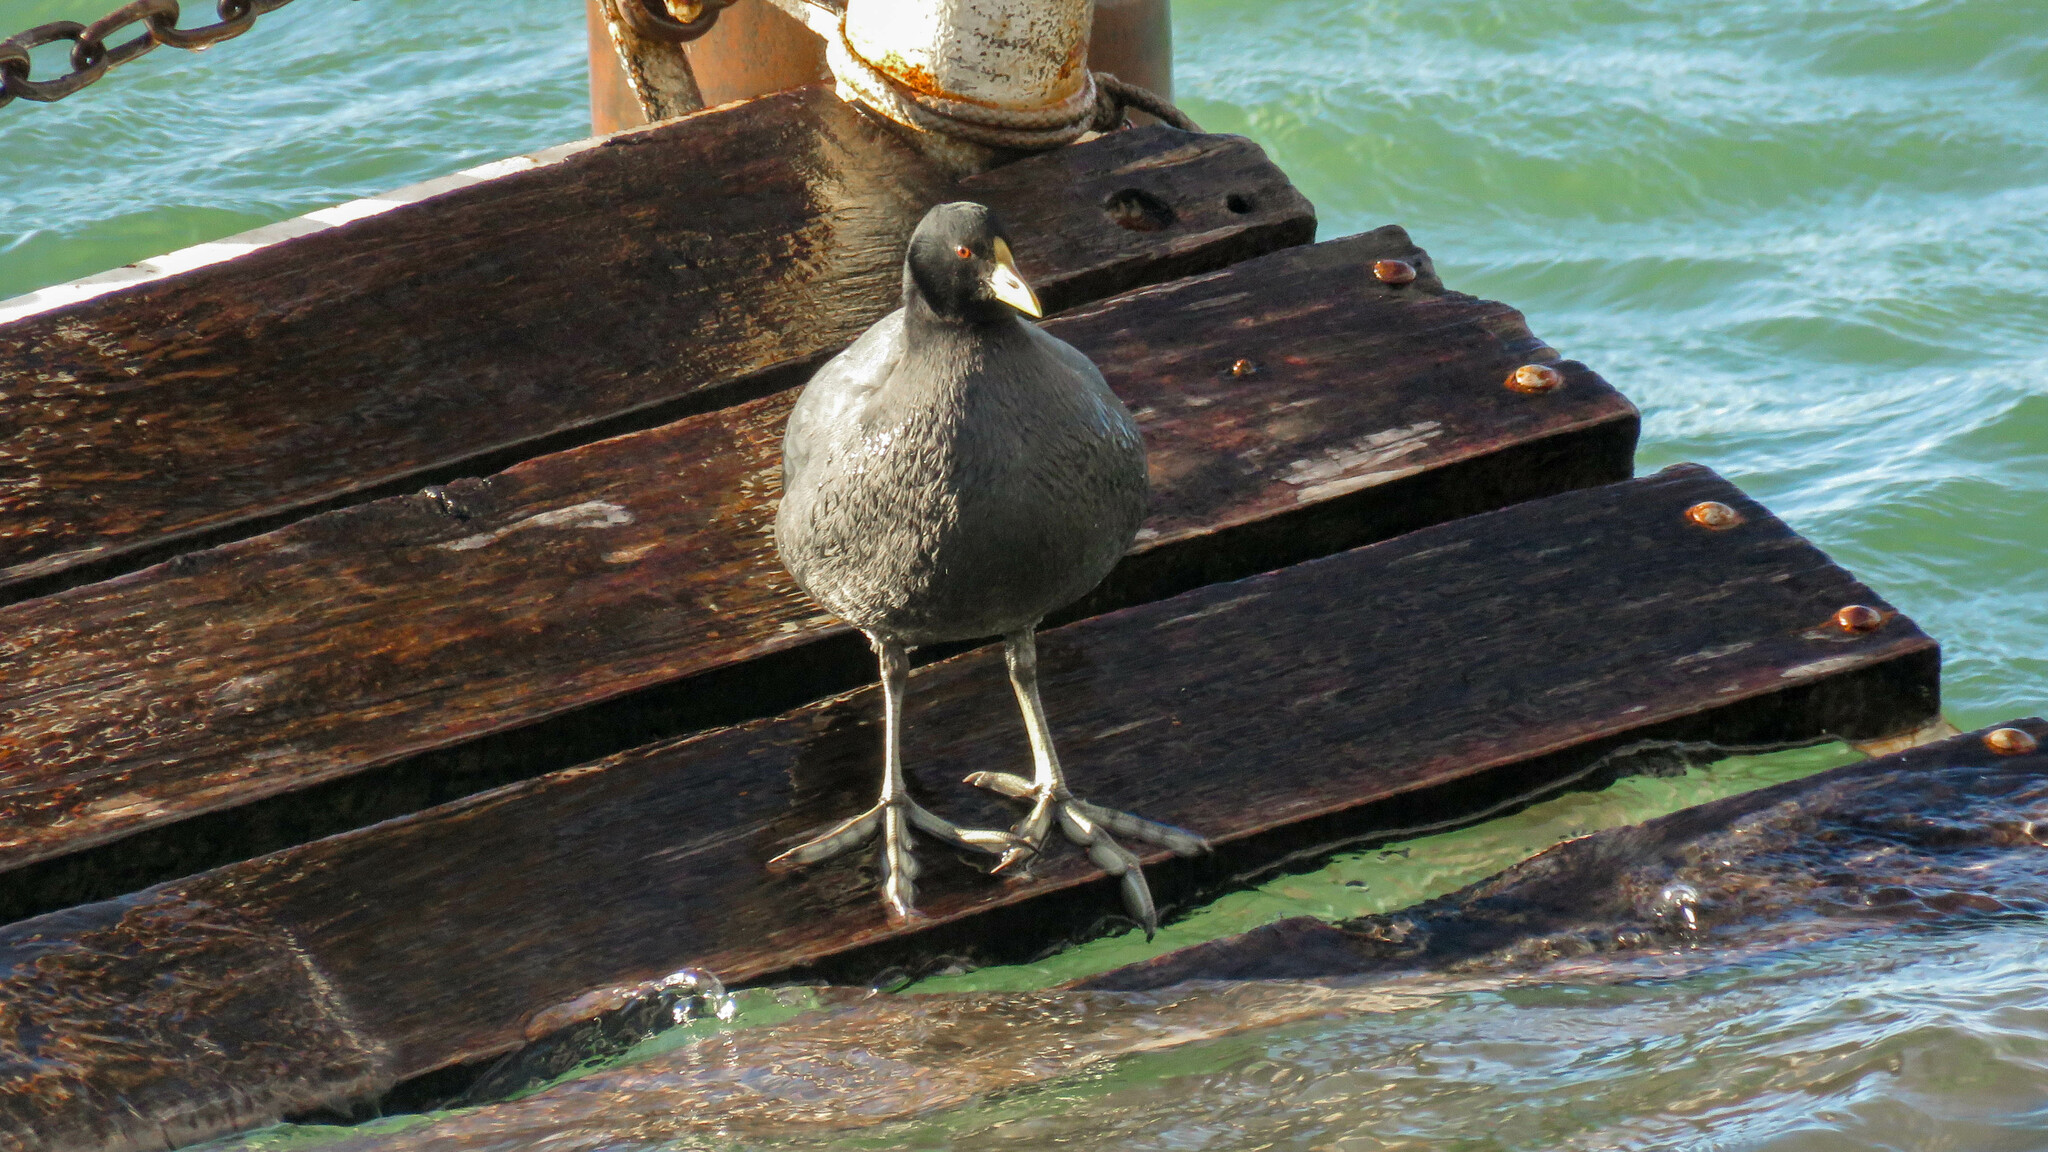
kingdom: Animalia
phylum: Chordata
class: Aves
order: Gruiformes
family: Rallidae
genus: Fulica
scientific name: Fulica leucoptera
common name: White-winged coot
